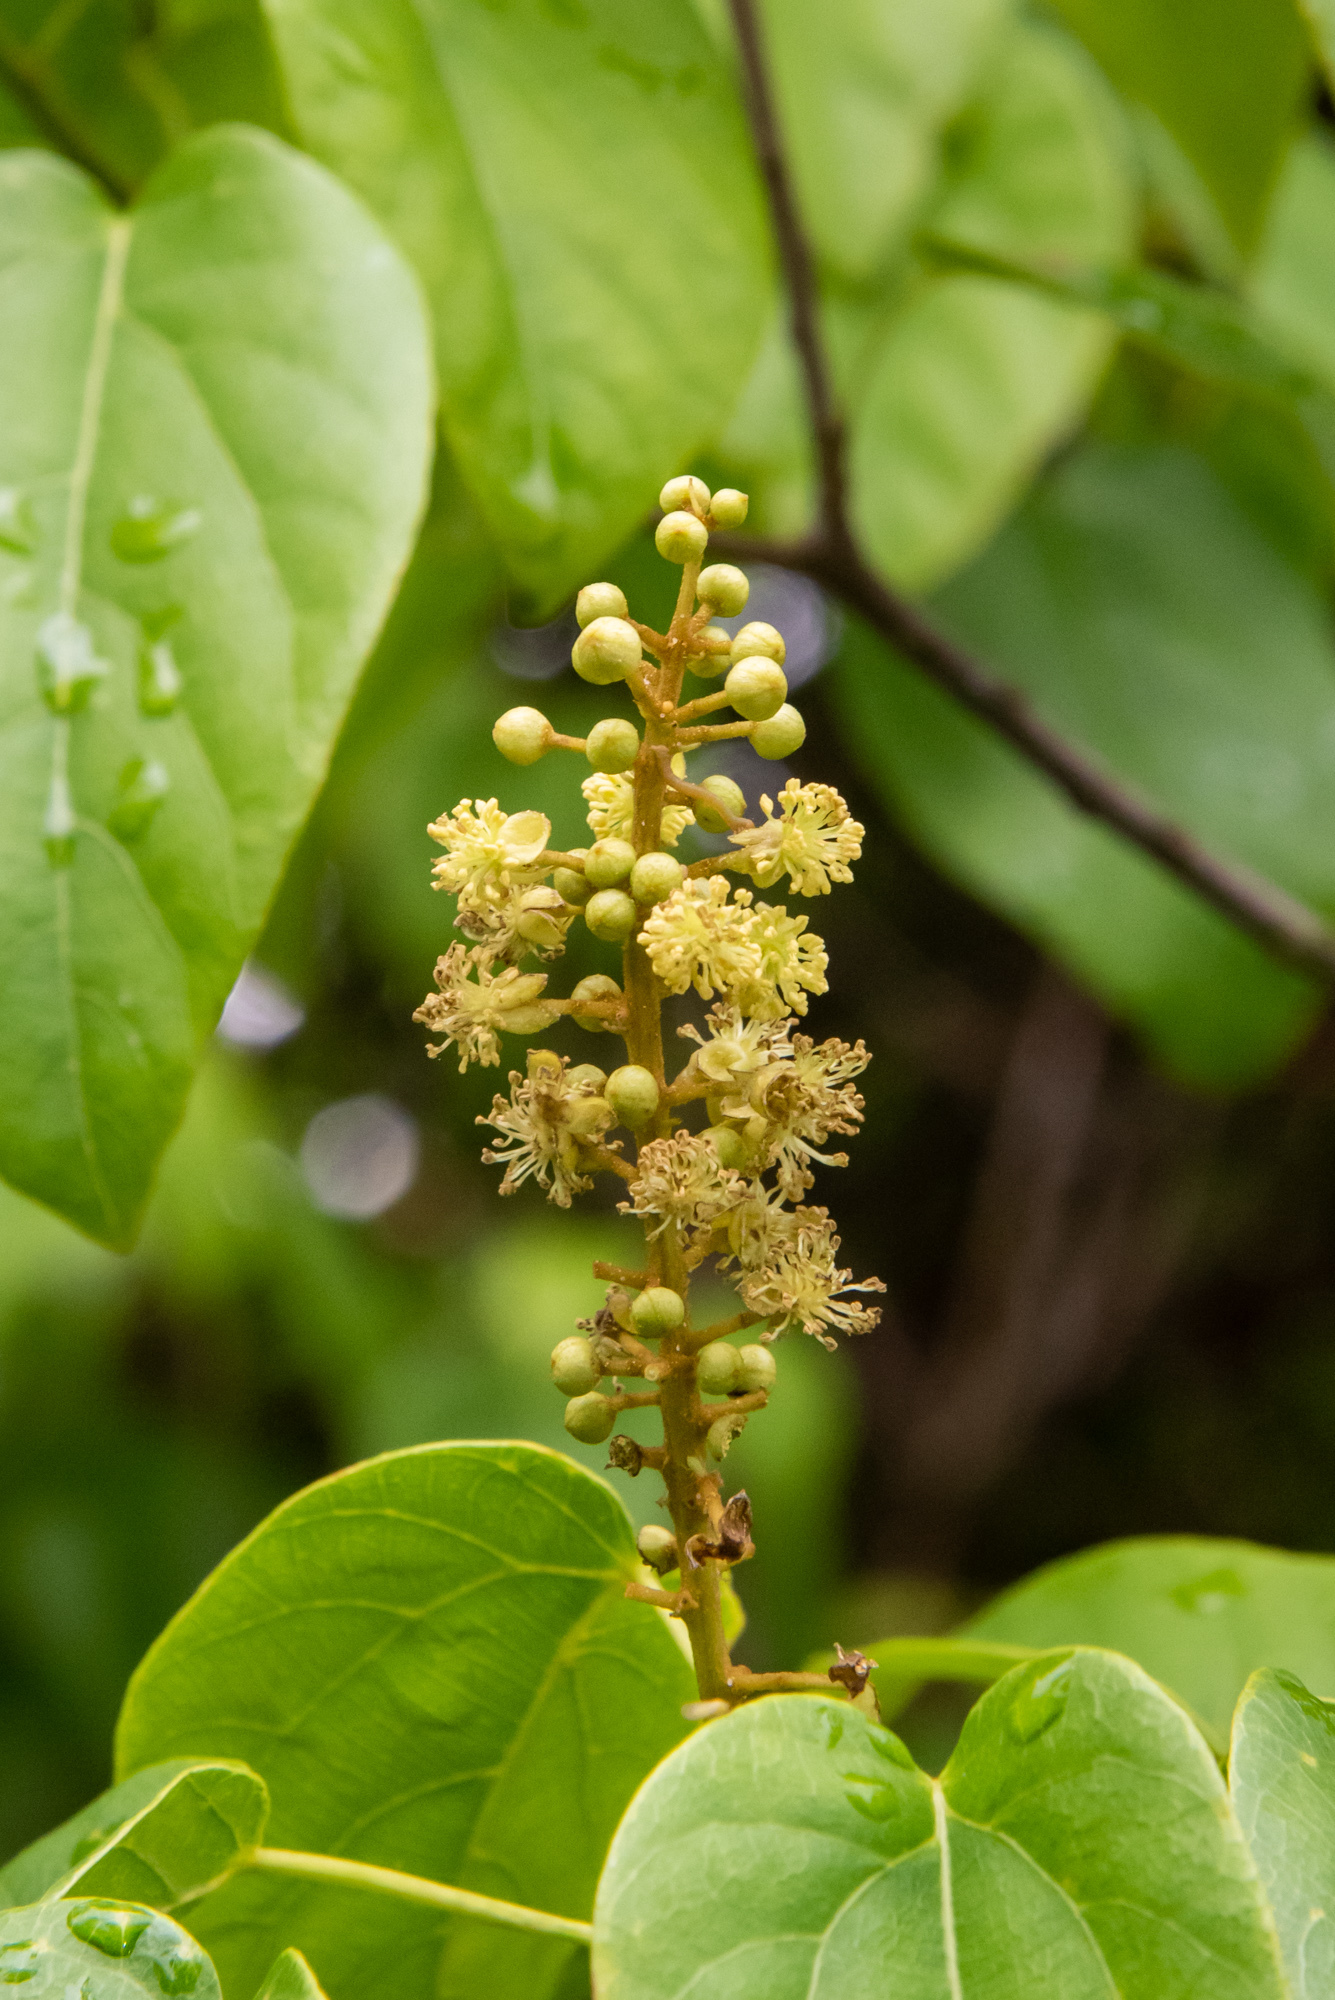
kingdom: Plantae
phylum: Tracheophyta
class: Magnoliopsida
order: Malpighiales
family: Euphorbiaceae
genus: Mallotus
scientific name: Mallotus repandus
